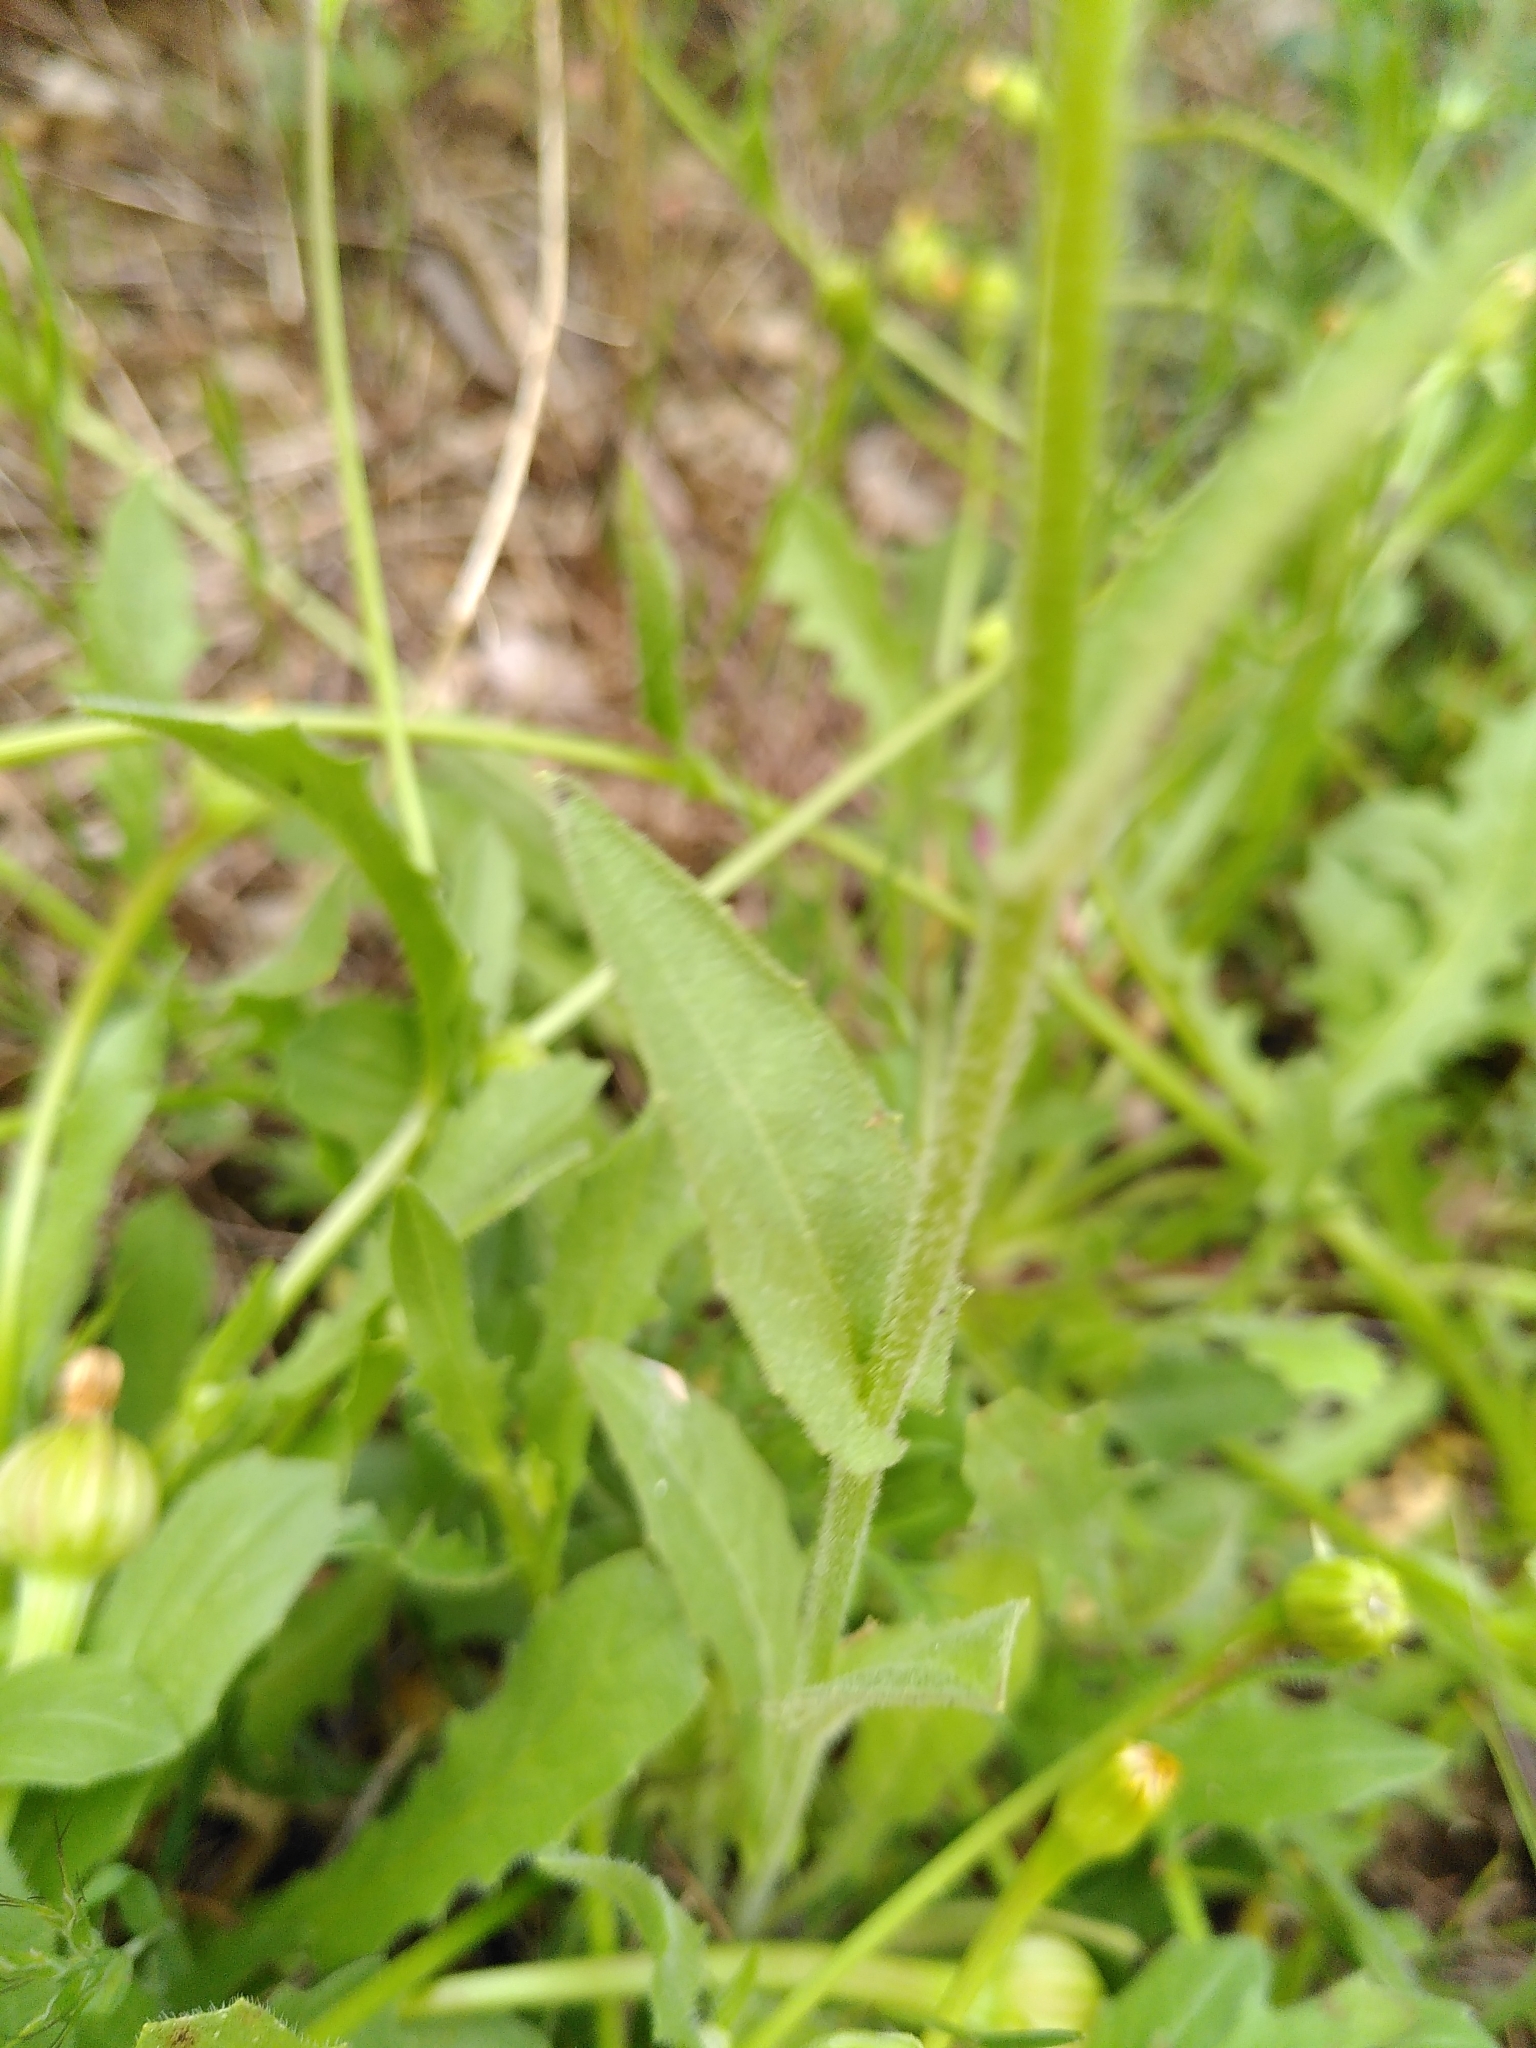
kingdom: Plantae
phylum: Tracheophyta
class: Magnoliopsida
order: Asterales
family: Asteraceae
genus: Crepis
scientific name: Crepis pulchra
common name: Hawk's-beard
